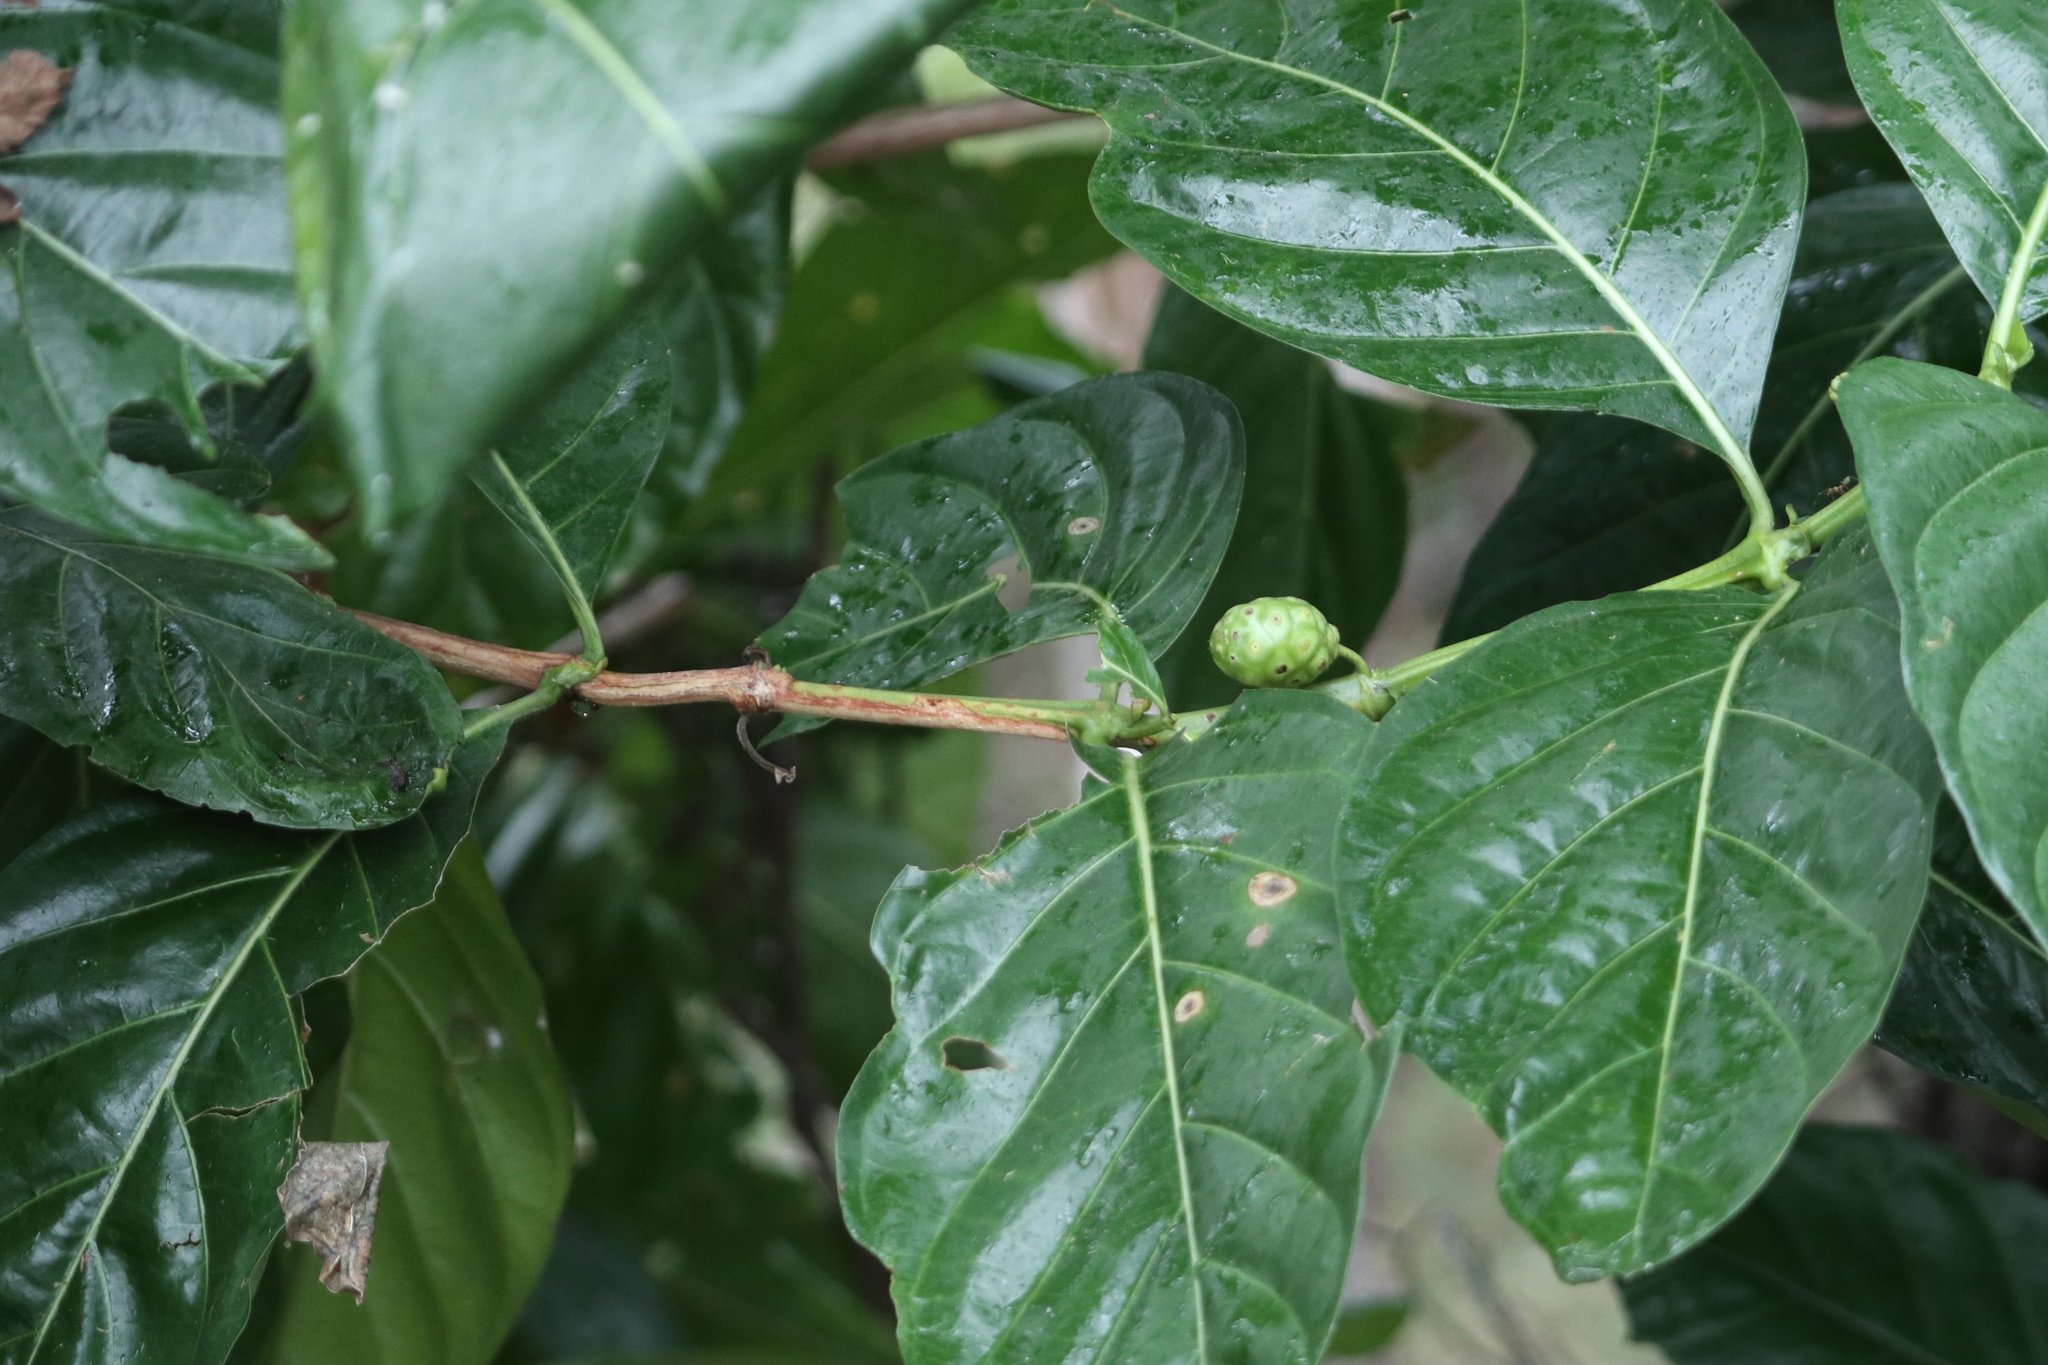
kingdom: Plantae
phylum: Tracheophyta
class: Magnoliopsida
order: Gentianales
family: Rubiaceae
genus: Morinda
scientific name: Morinda citrifolia
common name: Indian-mulberry
